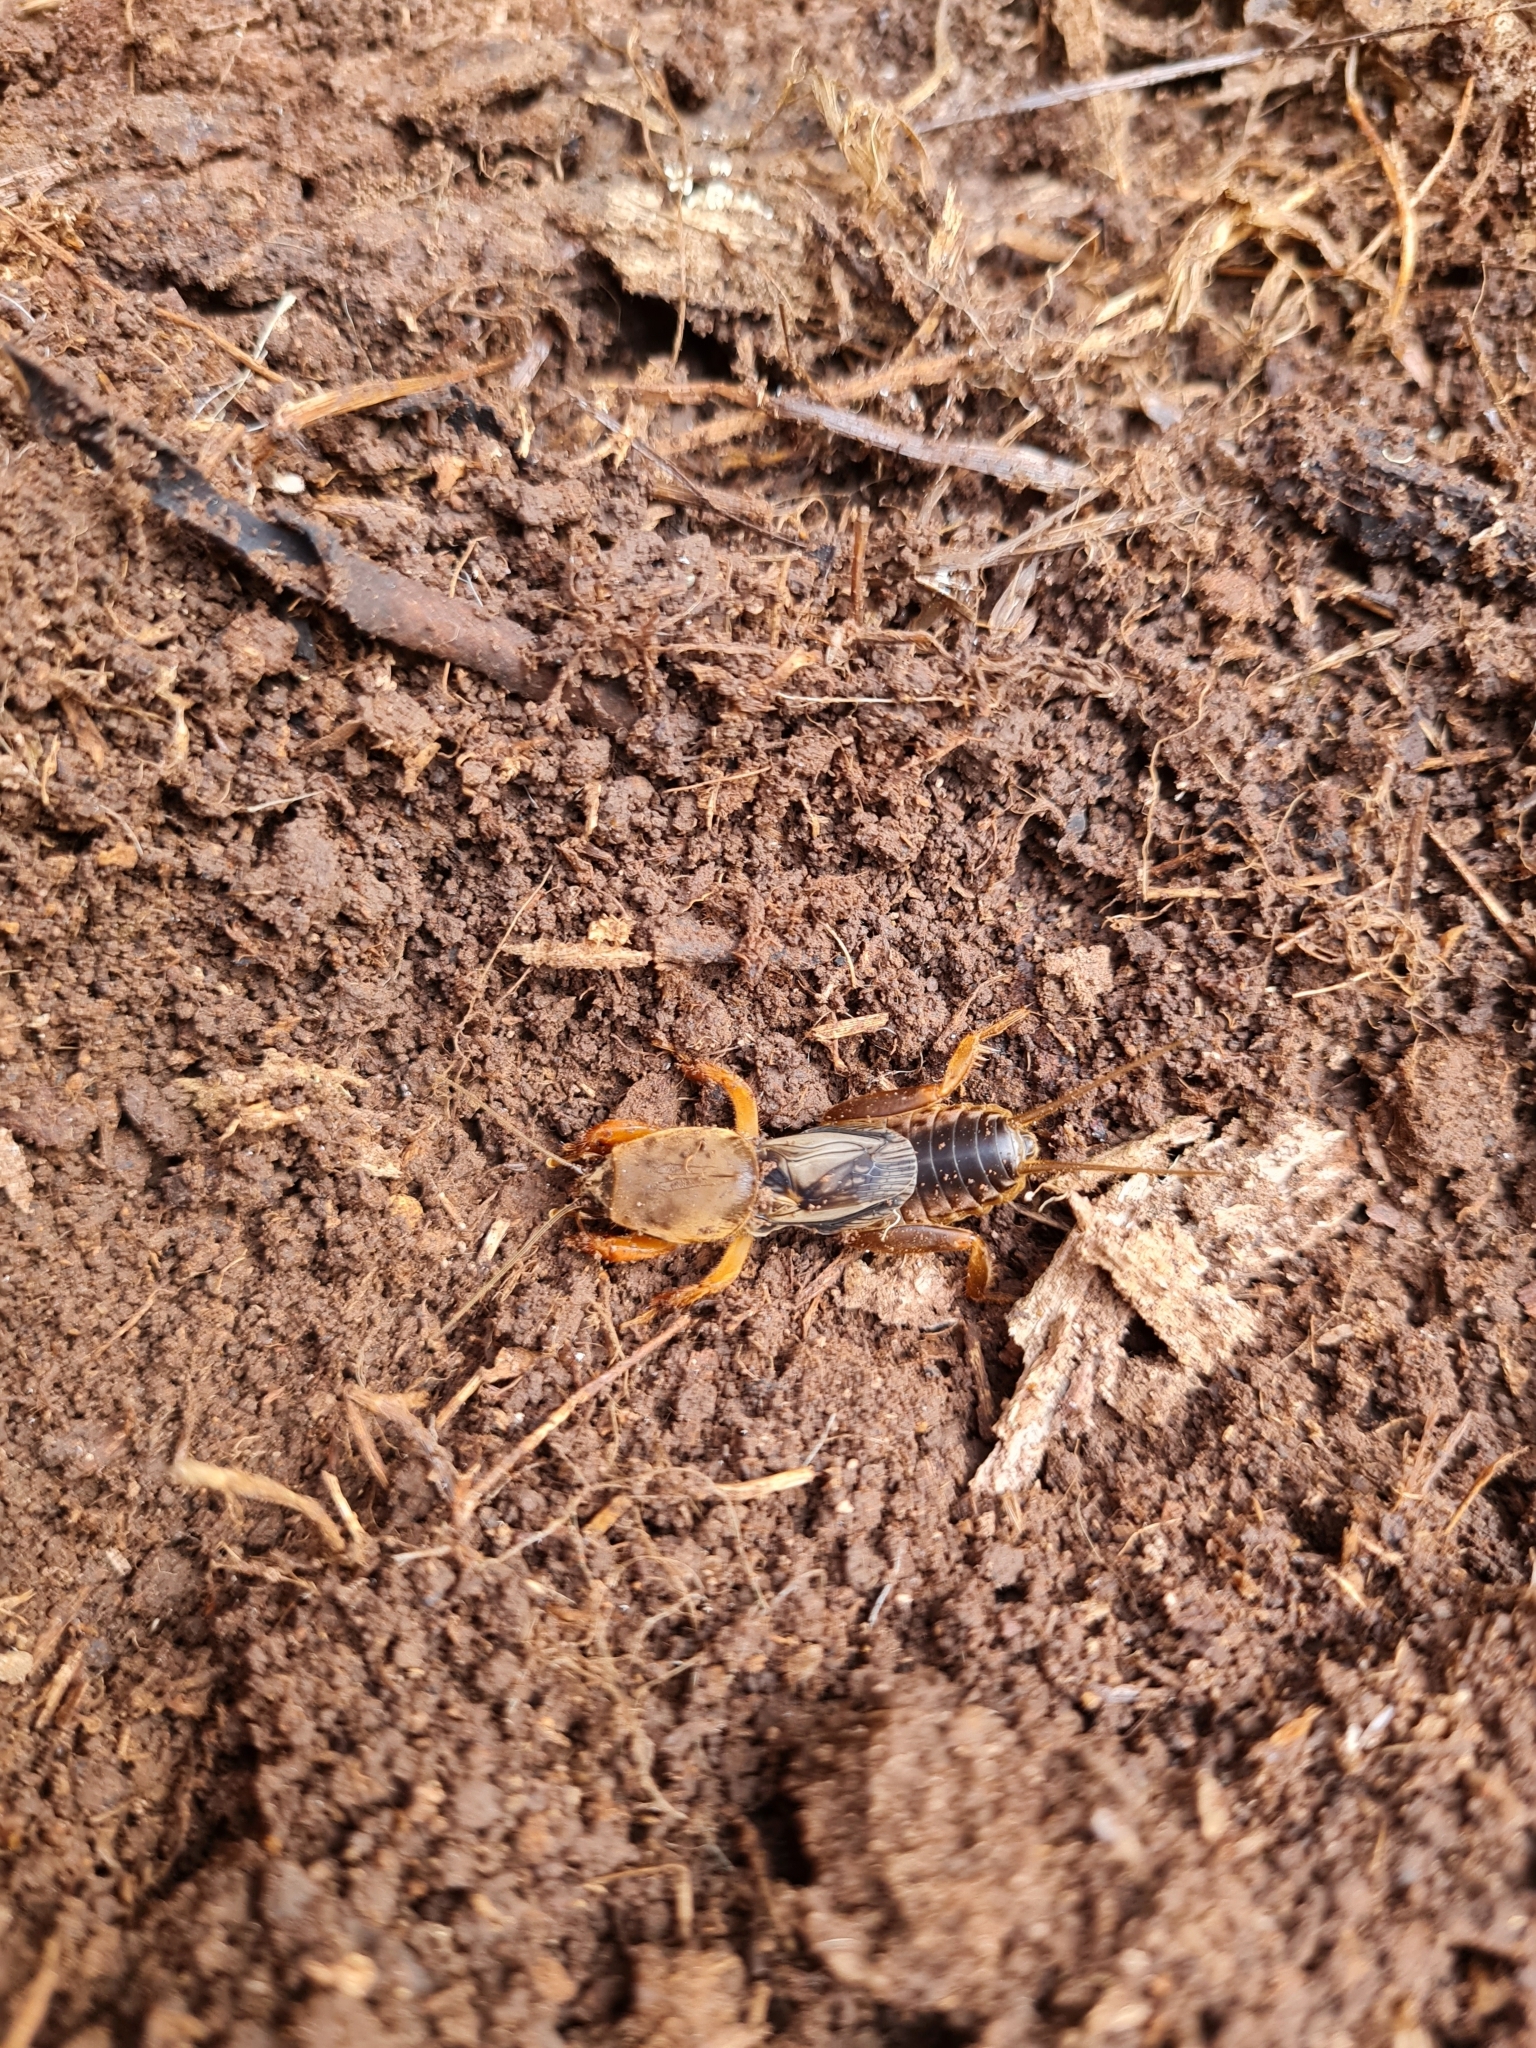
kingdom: Animalia
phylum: Arthropoda
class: Insecta
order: Orthoptera
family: Gryllotalpidae
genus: Gryllotalpa
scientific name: Gryllotalpa australis
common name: Southern mole cricket
